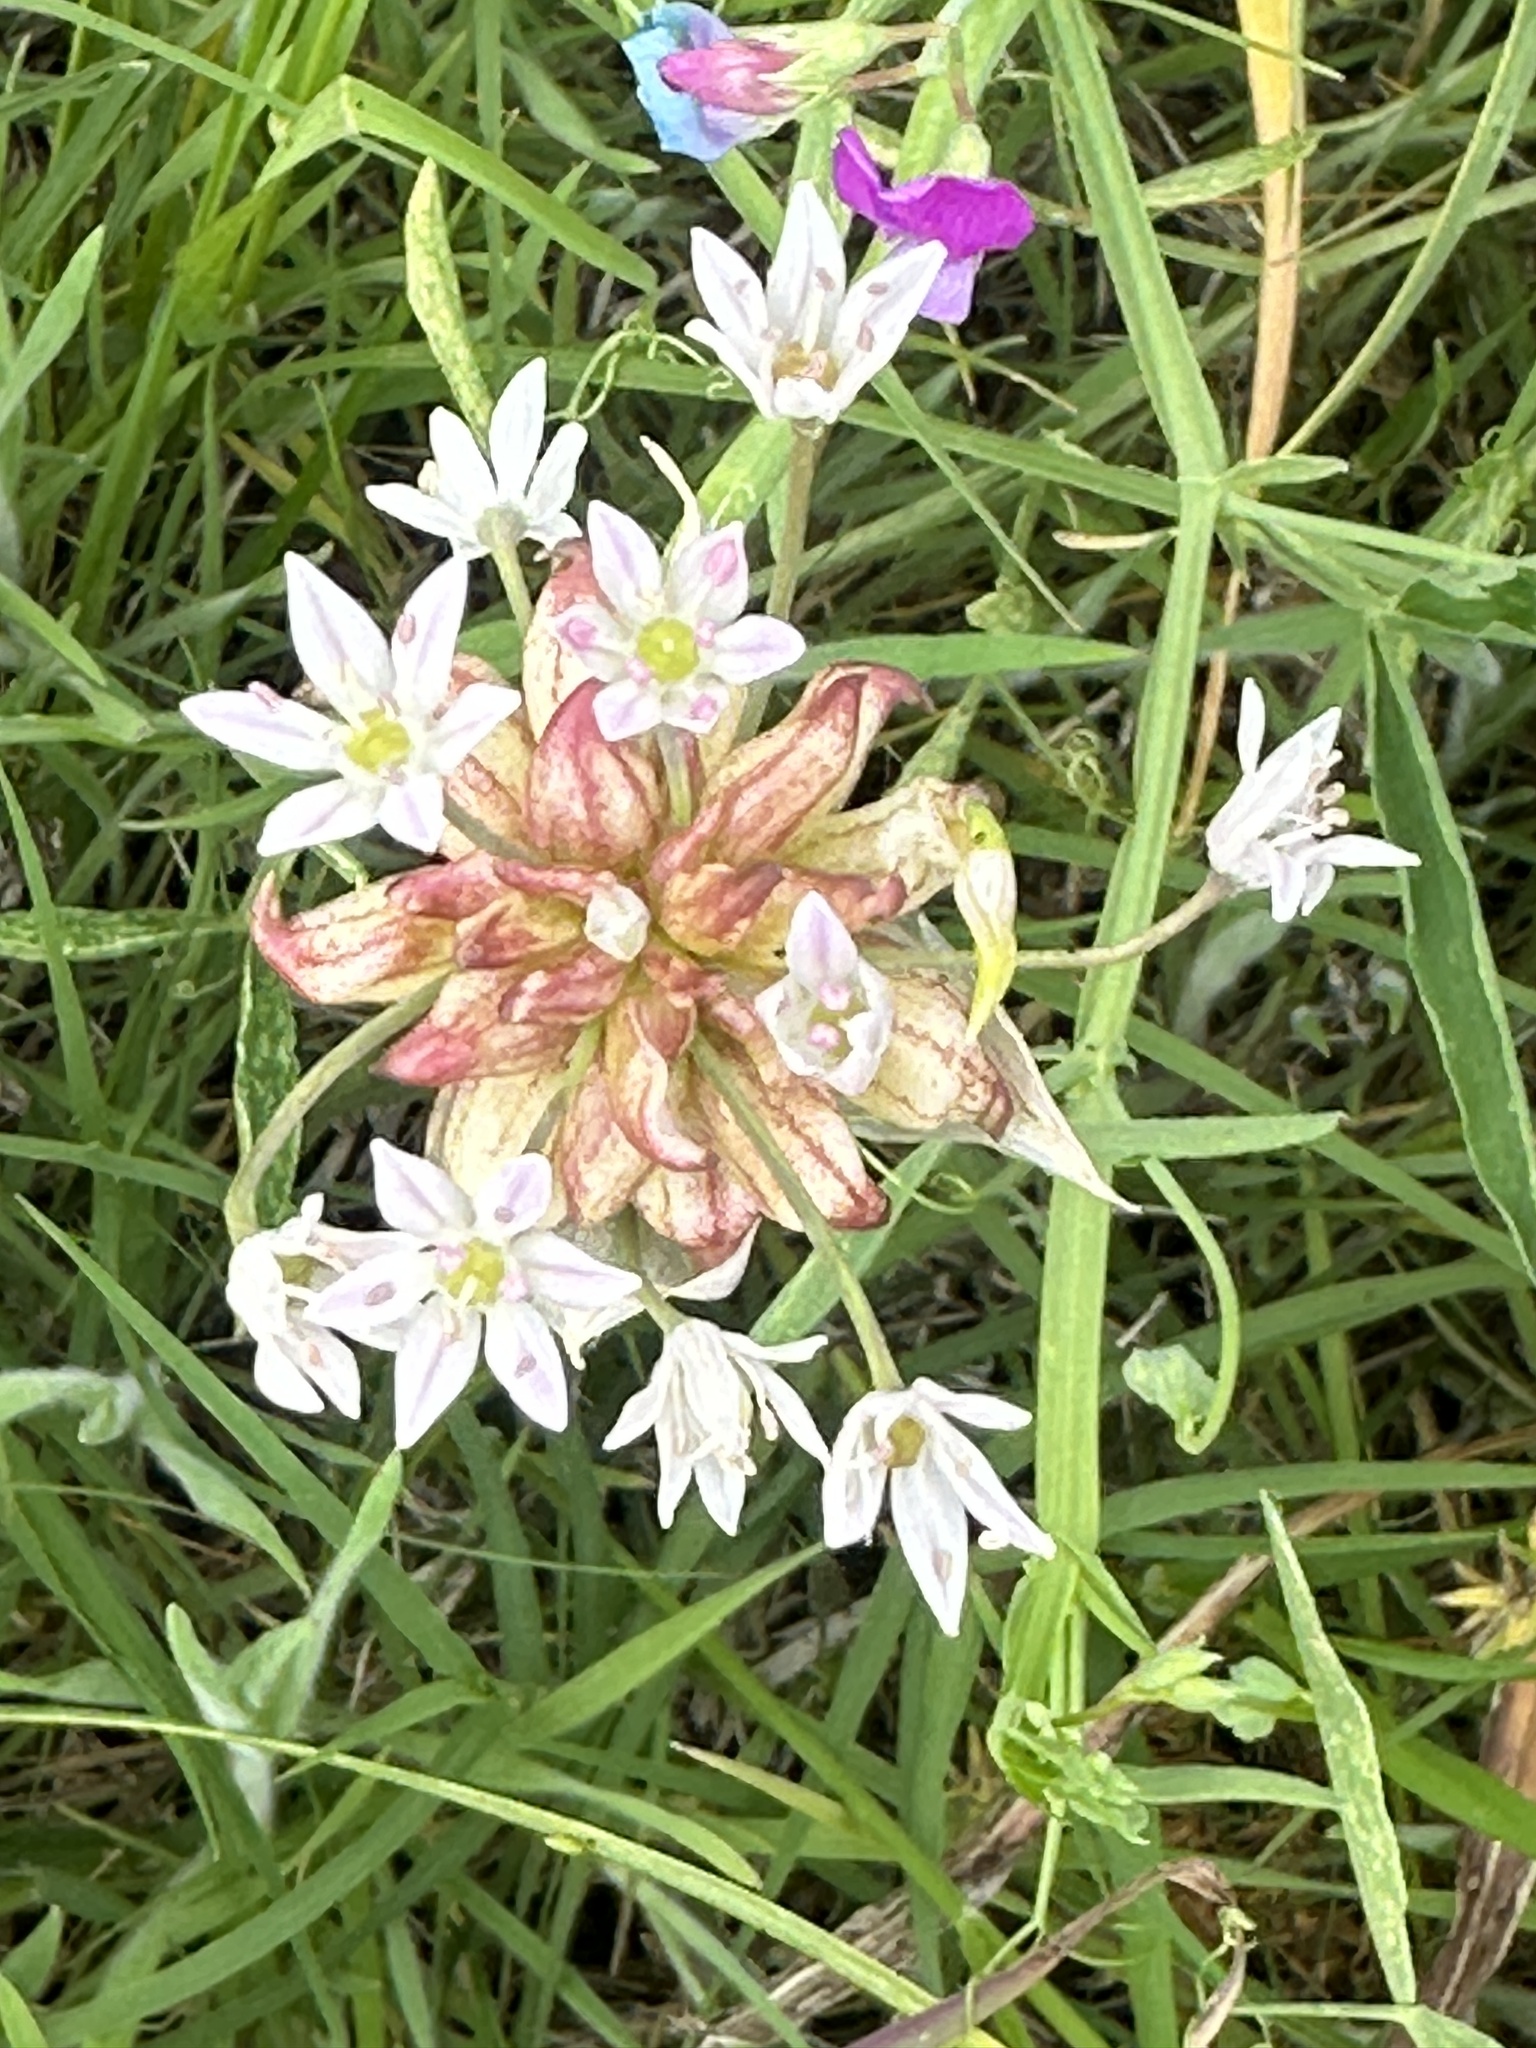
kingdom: Plantae
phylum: Tracheophyta
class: Liliopsida
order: Asparagales
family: Amaryllidaceae
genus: Allium
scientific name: Allium canadense
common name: Meadow garlic
